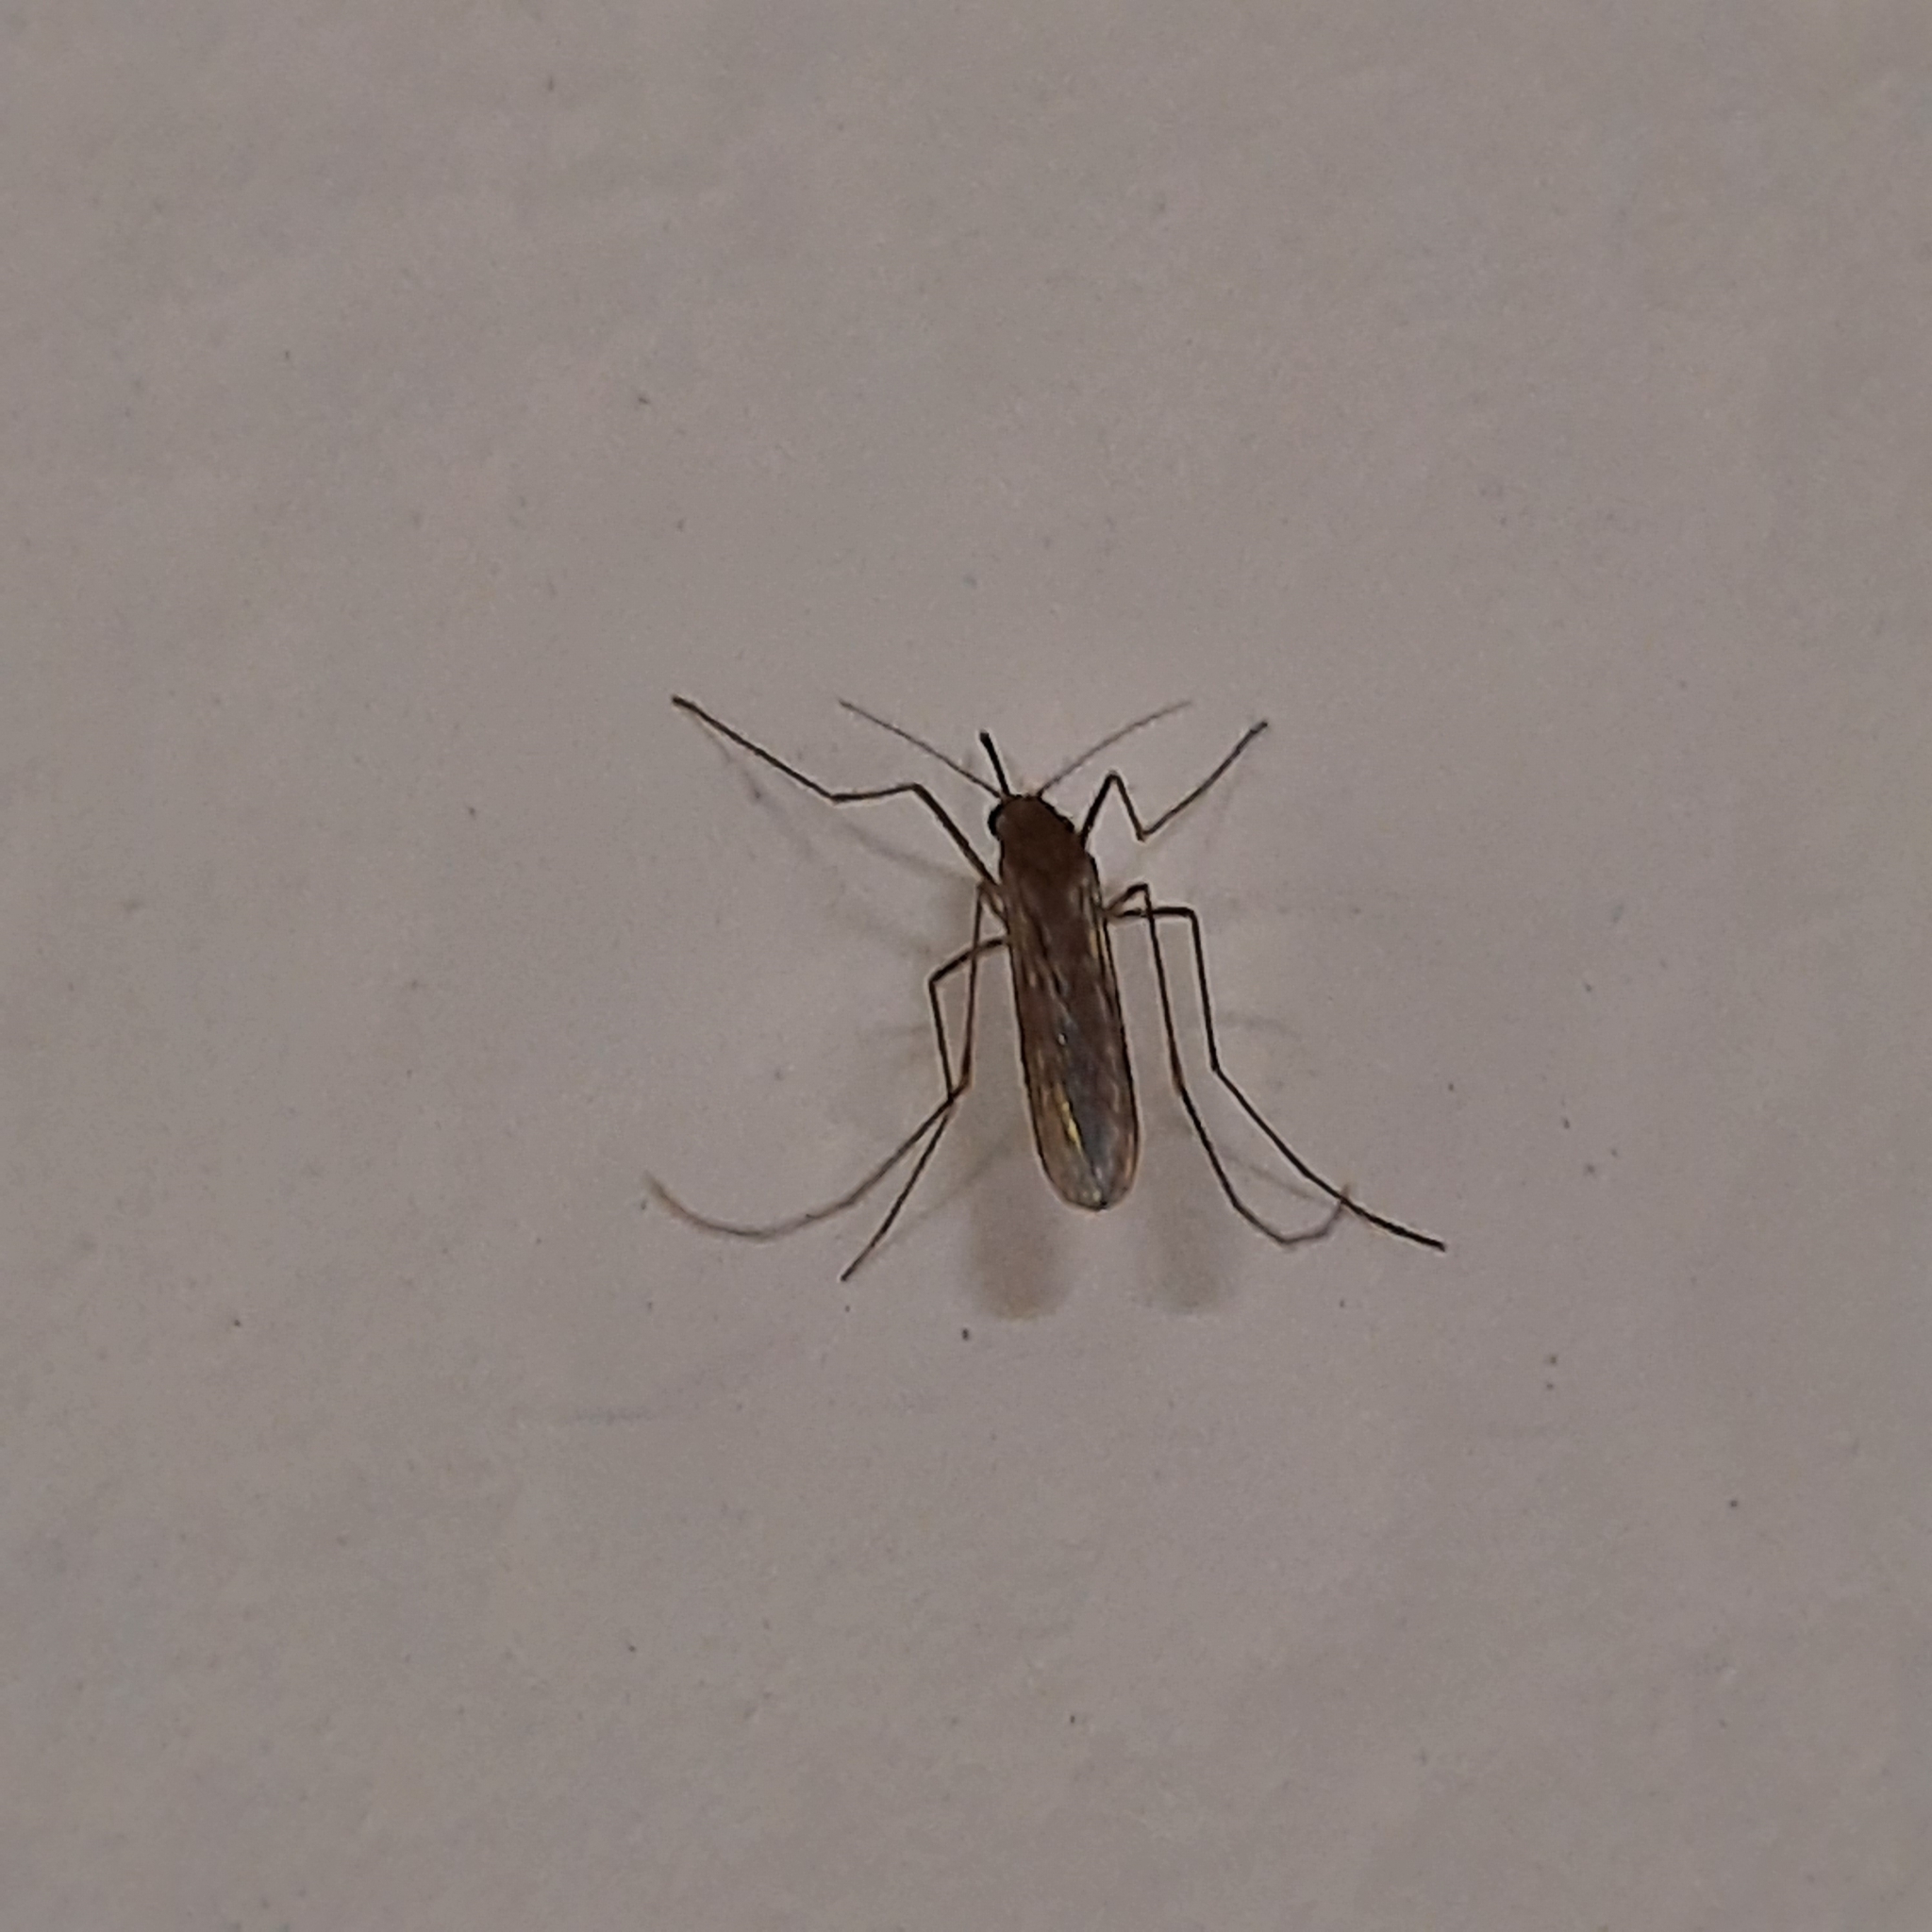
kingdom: Animalia
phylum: Arthropoda
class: Insecta
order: Diptera
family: Culicidae
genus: Culex
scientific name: Culex
